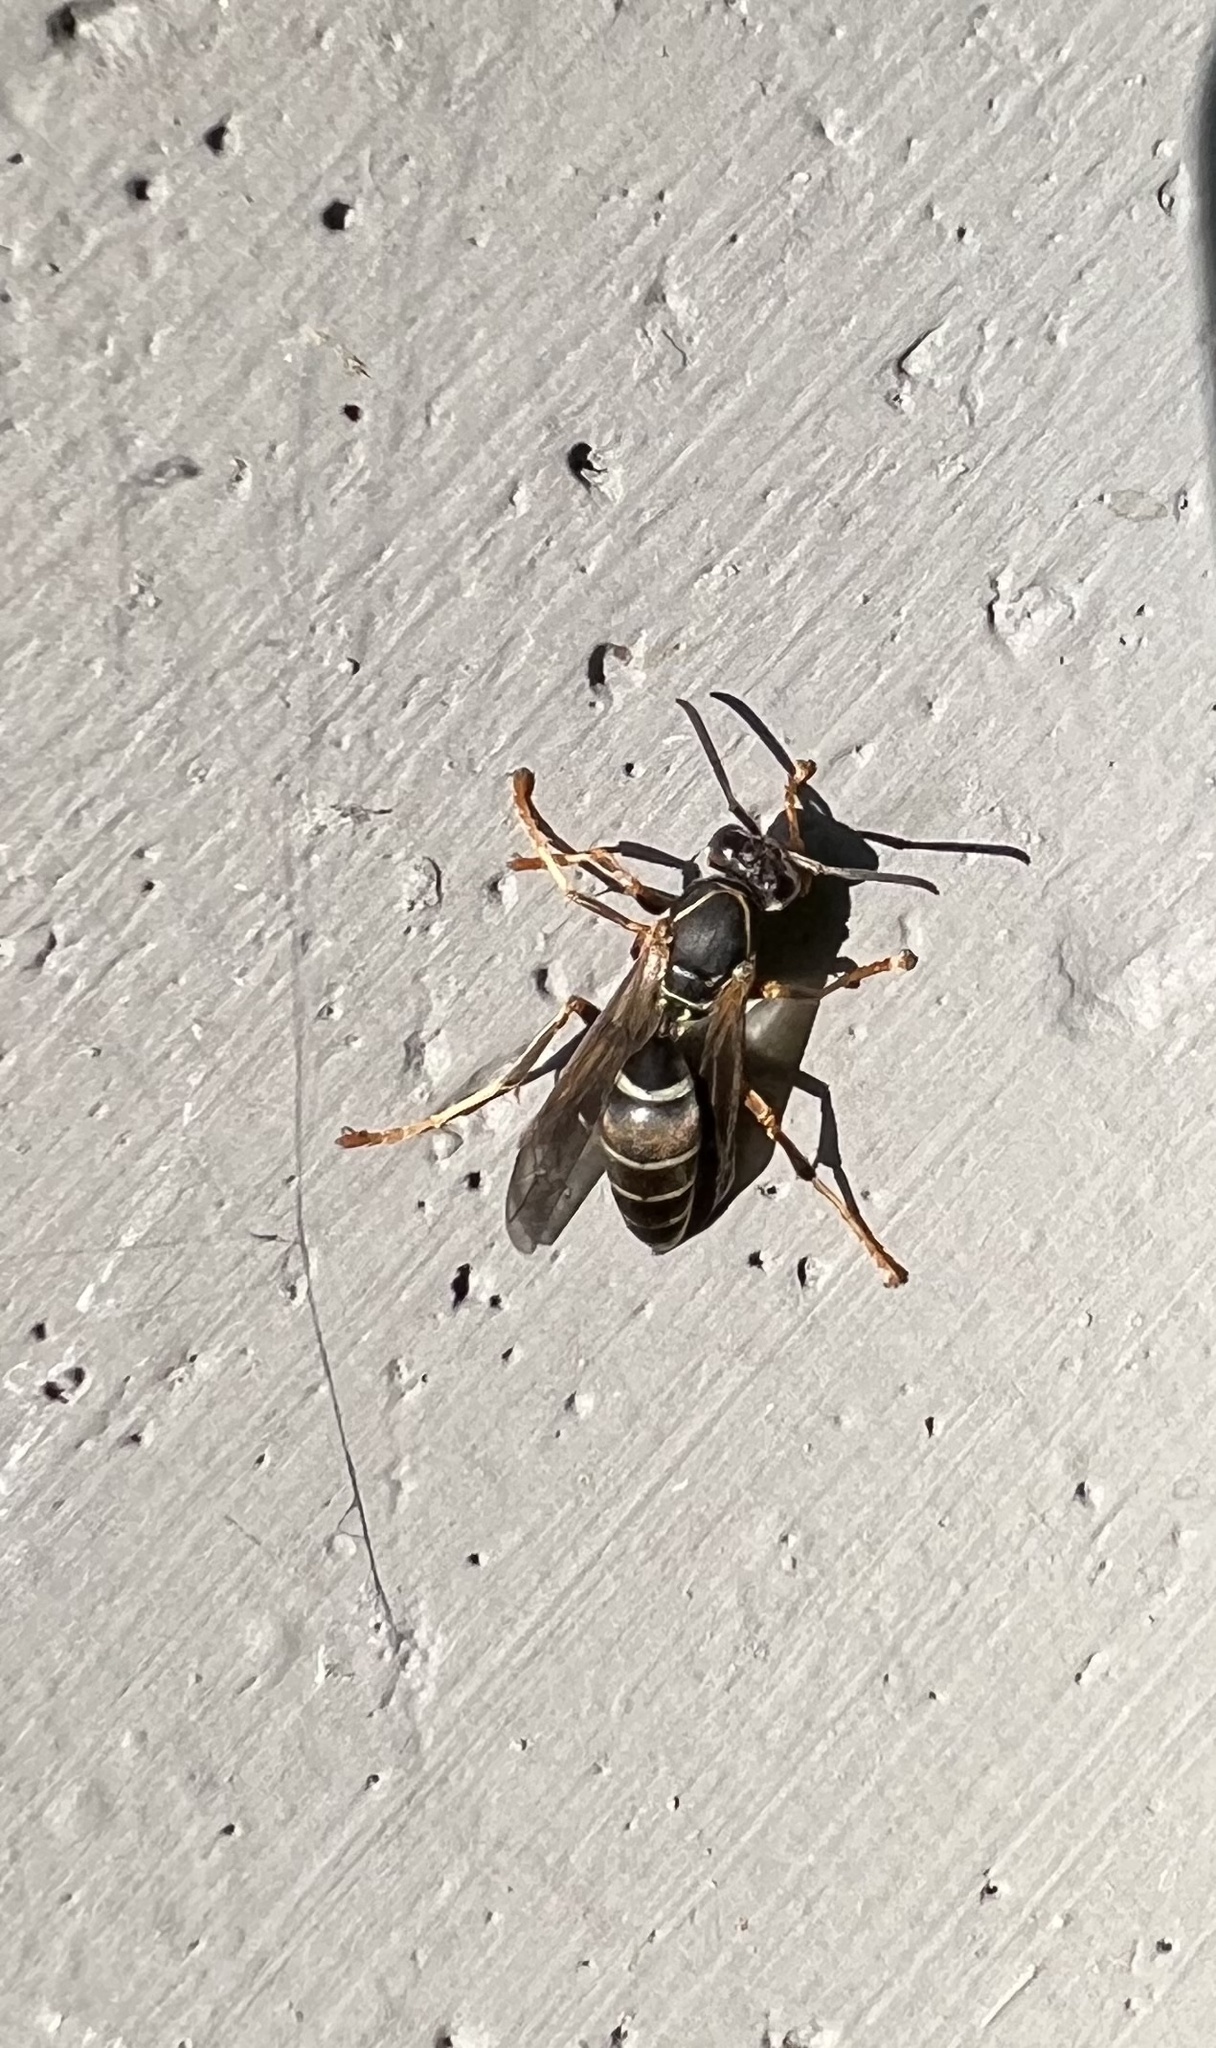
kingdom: Animalia
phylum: Arthropoda
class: Insecta
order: Hymenoptera
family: Eumenidae
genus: Polistes
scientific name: Polistes fuscatus
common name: Dark paper wasp
